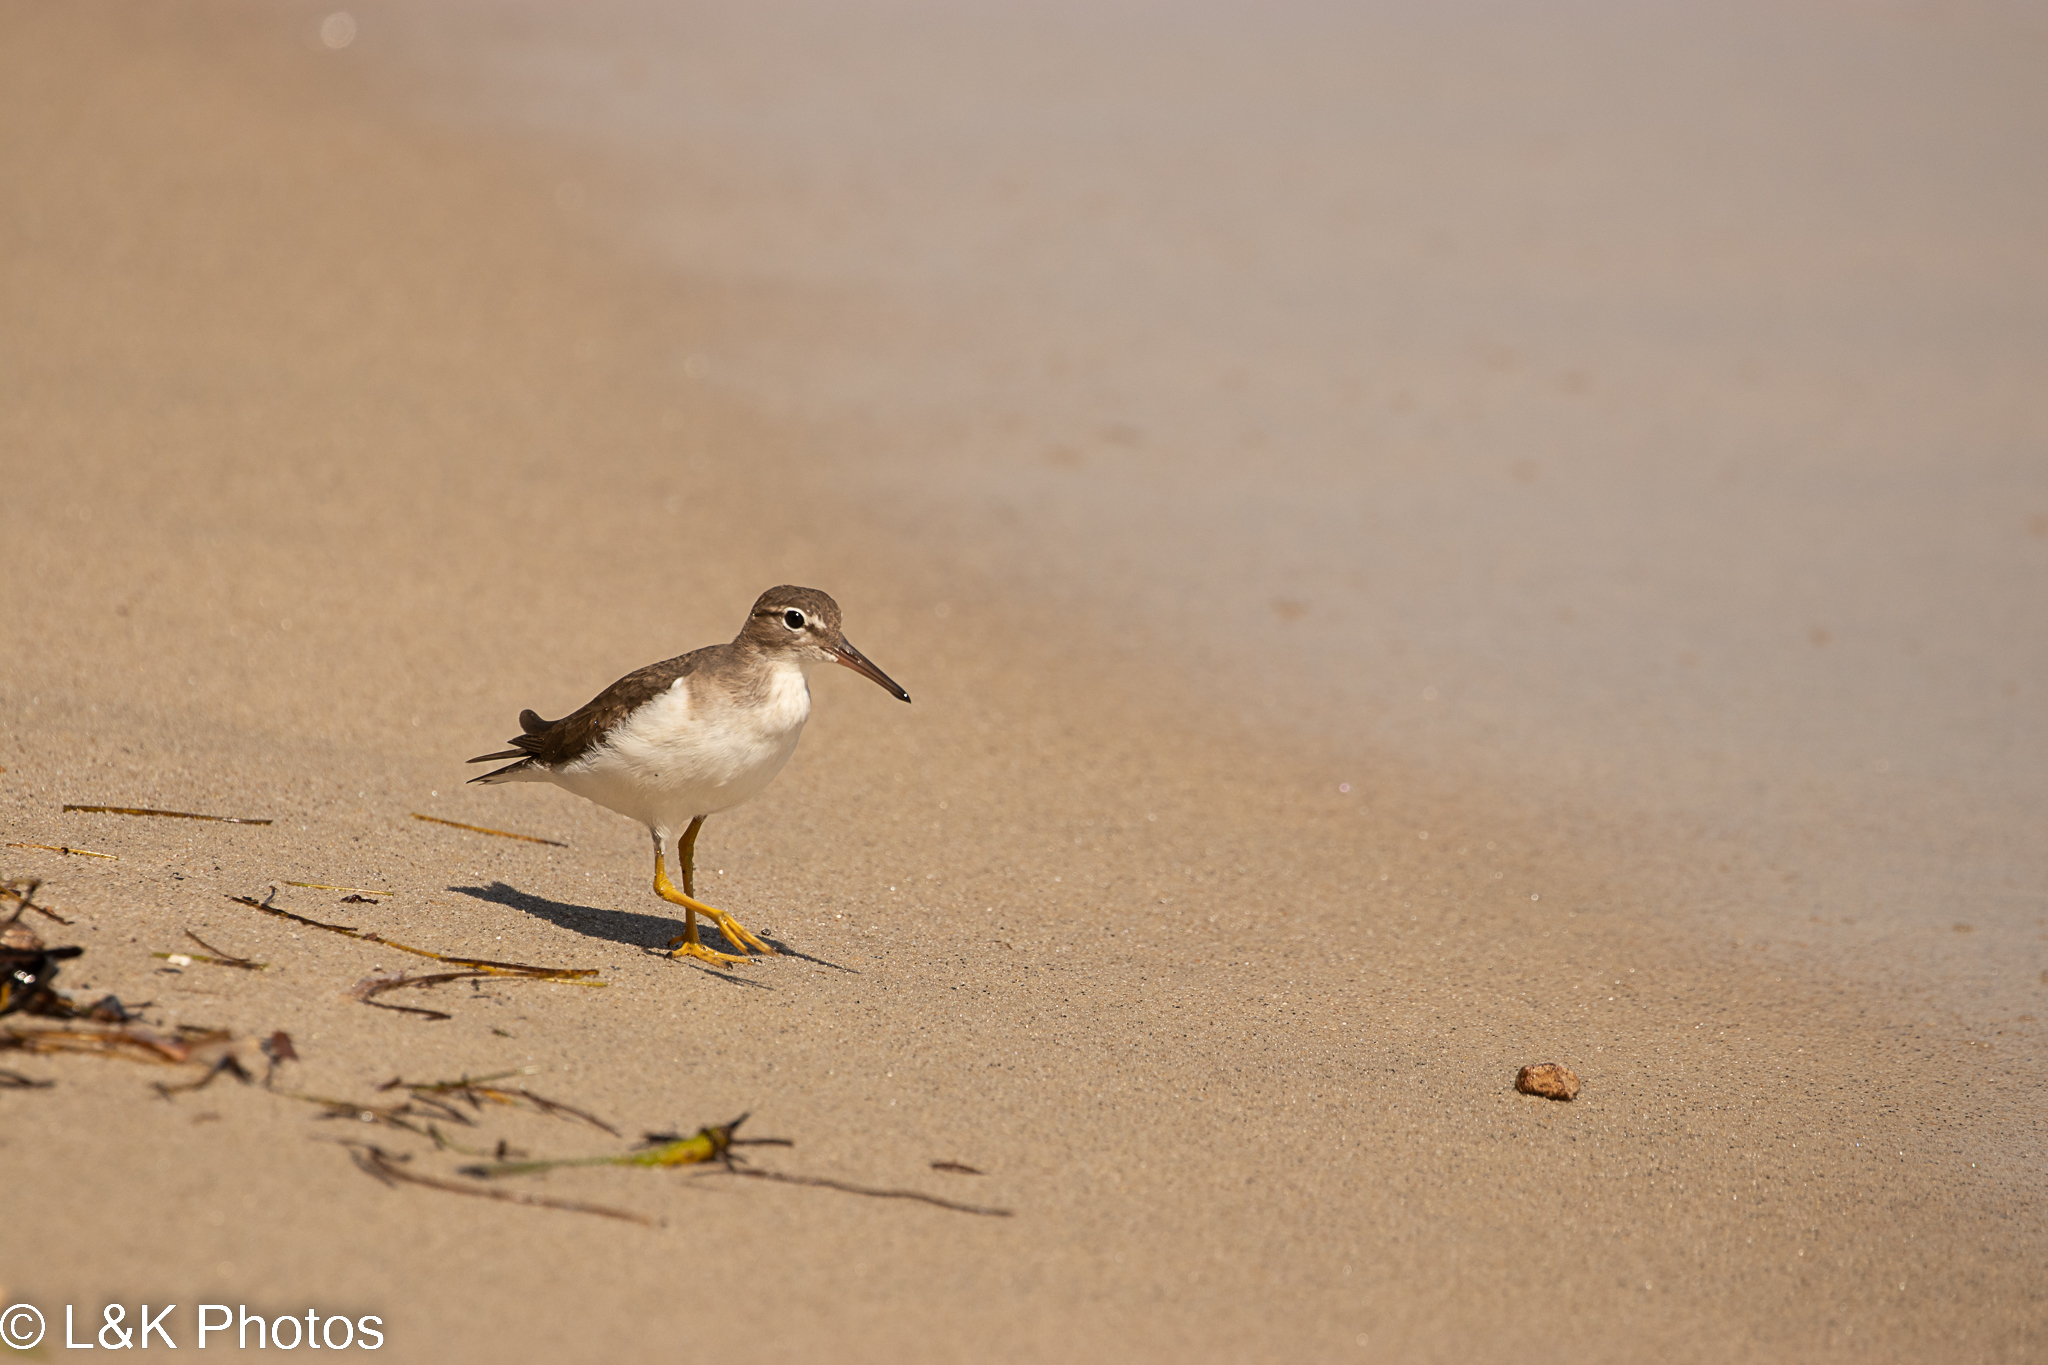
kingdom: Animalia
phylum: Chordata
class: Aves
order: Charadriiformes
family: Scolopacidae
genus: Actitis
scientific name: Actitis macularius
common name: Spotted sandpiper
